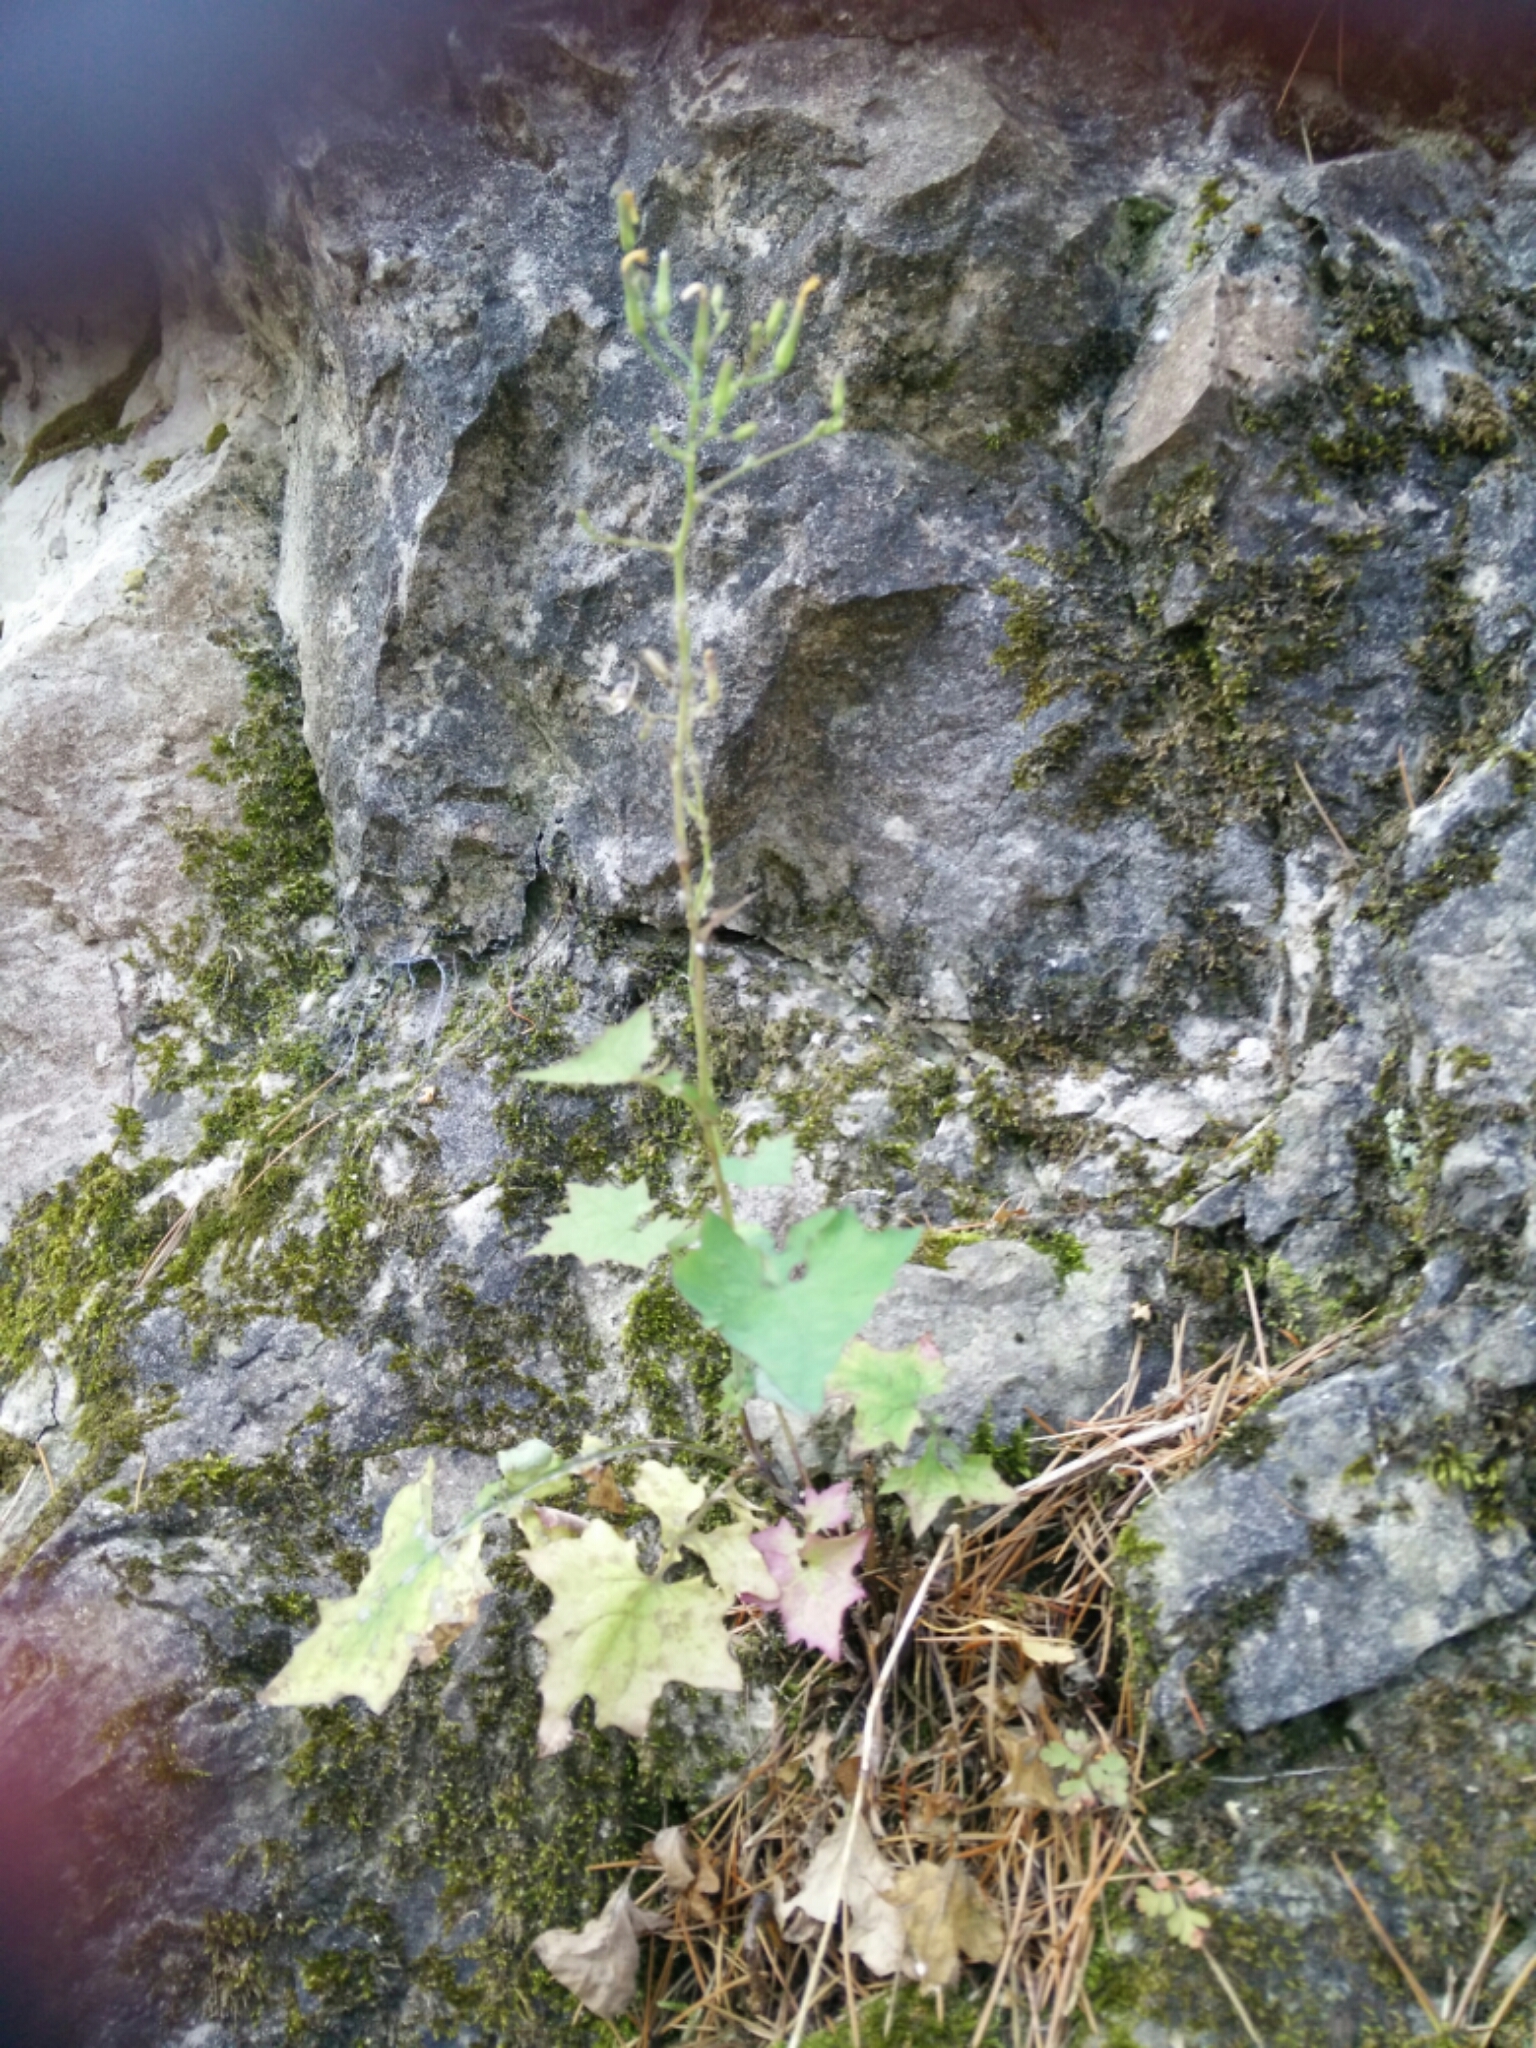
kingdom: Plantae
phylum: Tracheophyta
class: Magnoliopsida
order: Asterales
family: Asteraceae
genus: Mycelis
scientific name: Mycelis muralis
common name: Wall lettuce
